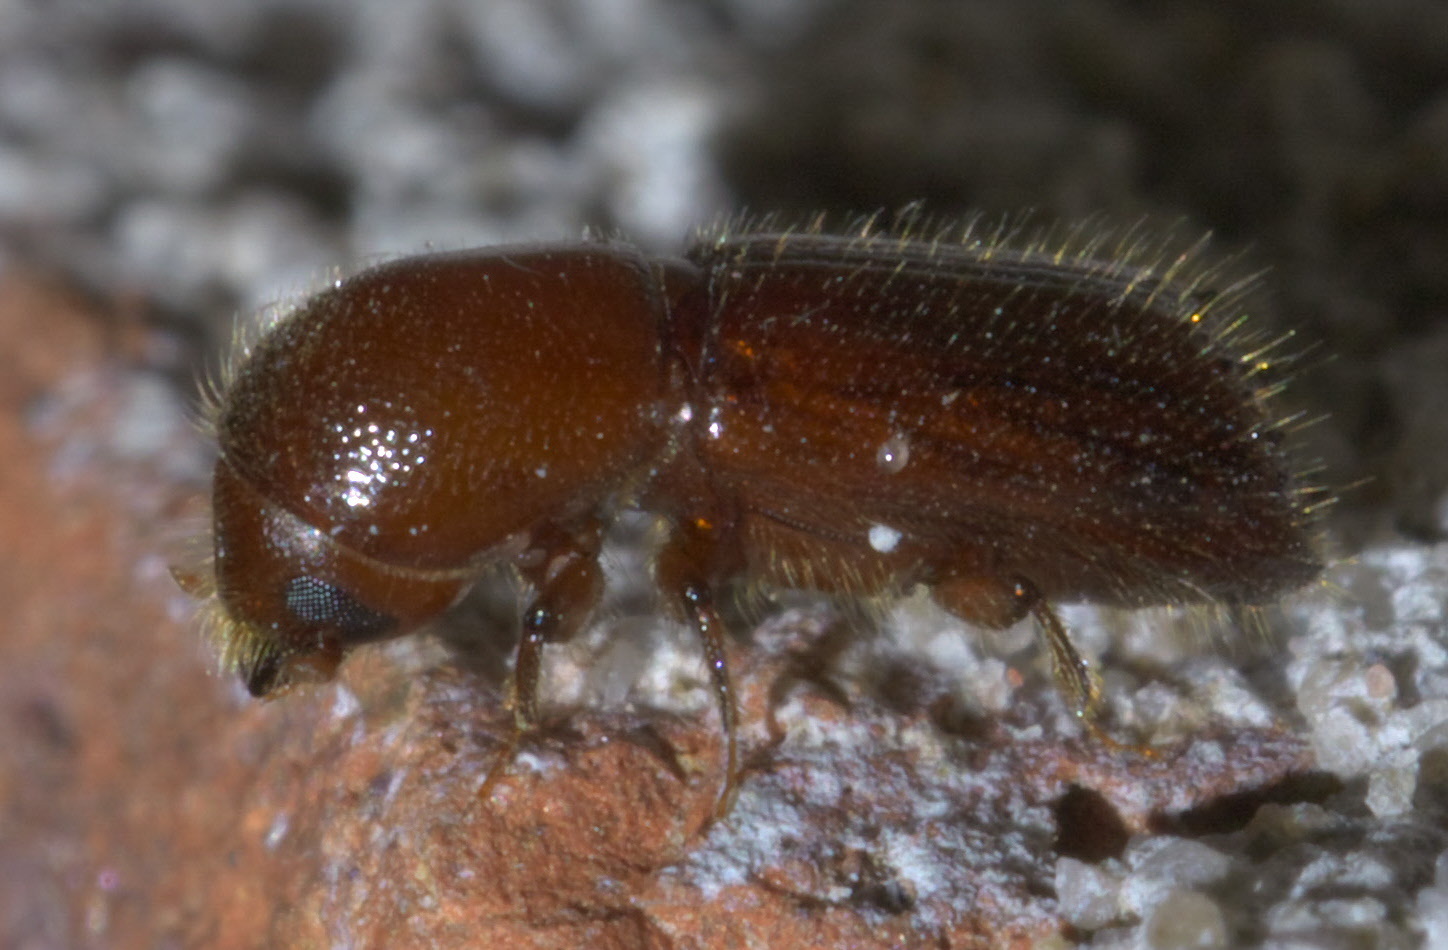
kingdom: Animalia
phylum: Arthropoda
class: Insecta
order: Coleoptera
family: Curculionidae
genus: Xyleborus
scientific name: Xyleborus celsus
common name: Weevil
